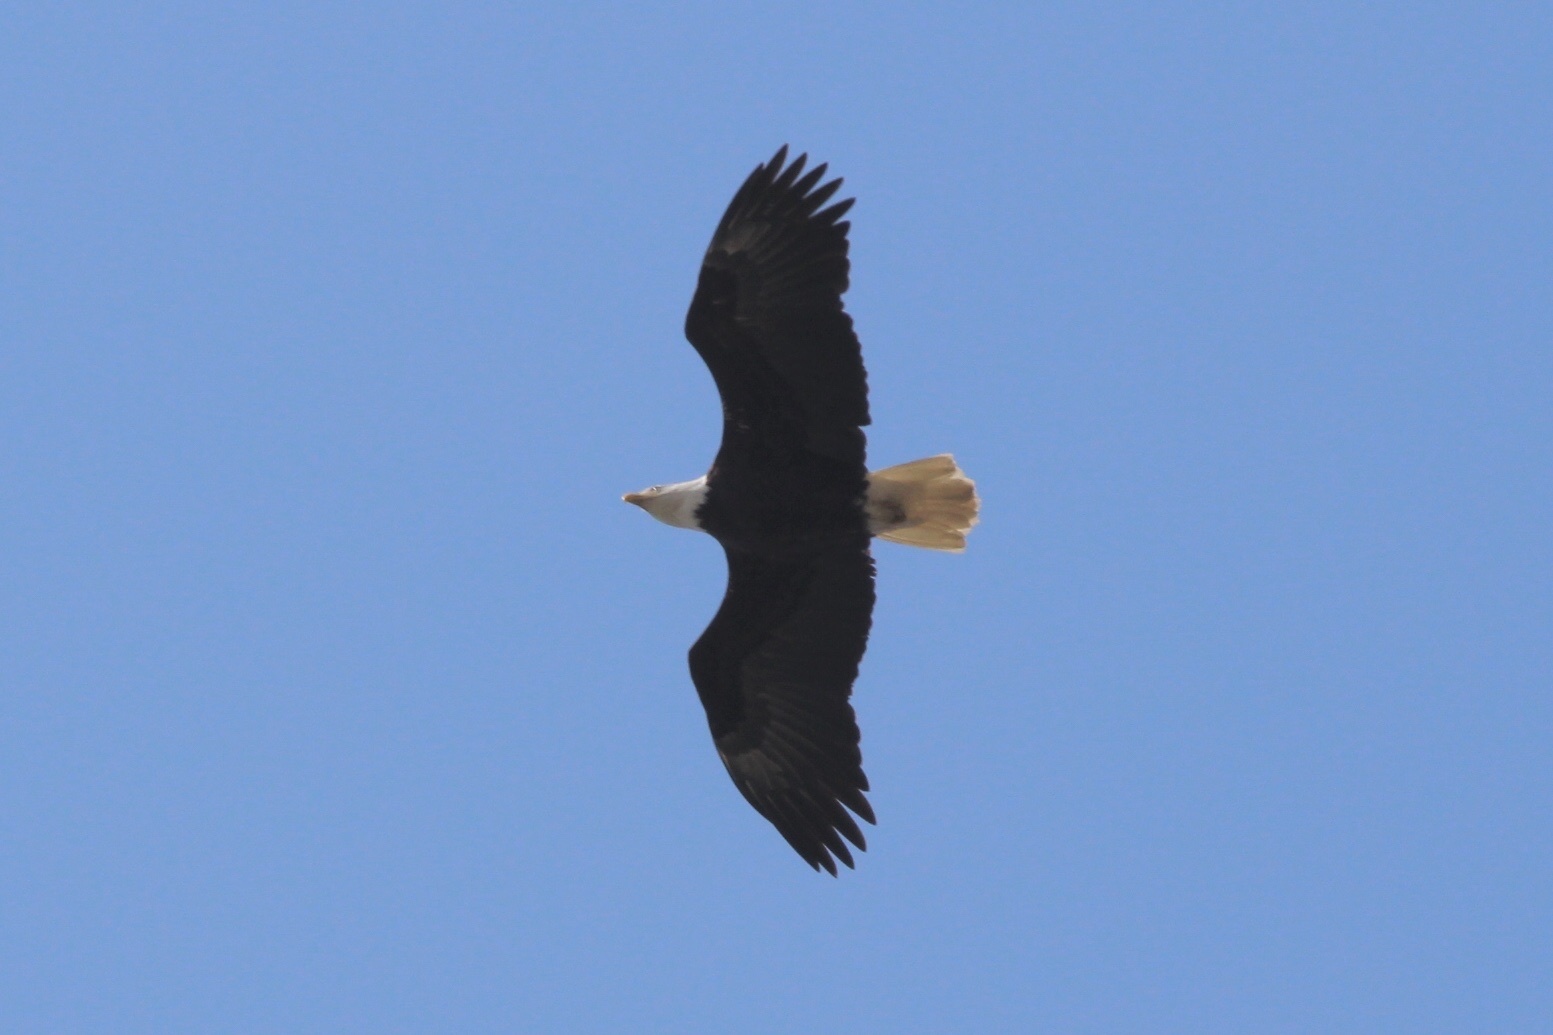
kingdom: Animalia
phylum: Chordata
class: Aves
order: Accipitriformes
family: Accipitridae
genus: Haliaeetus
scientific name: Haliaeetus leucocephalus
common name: Bald eagle
